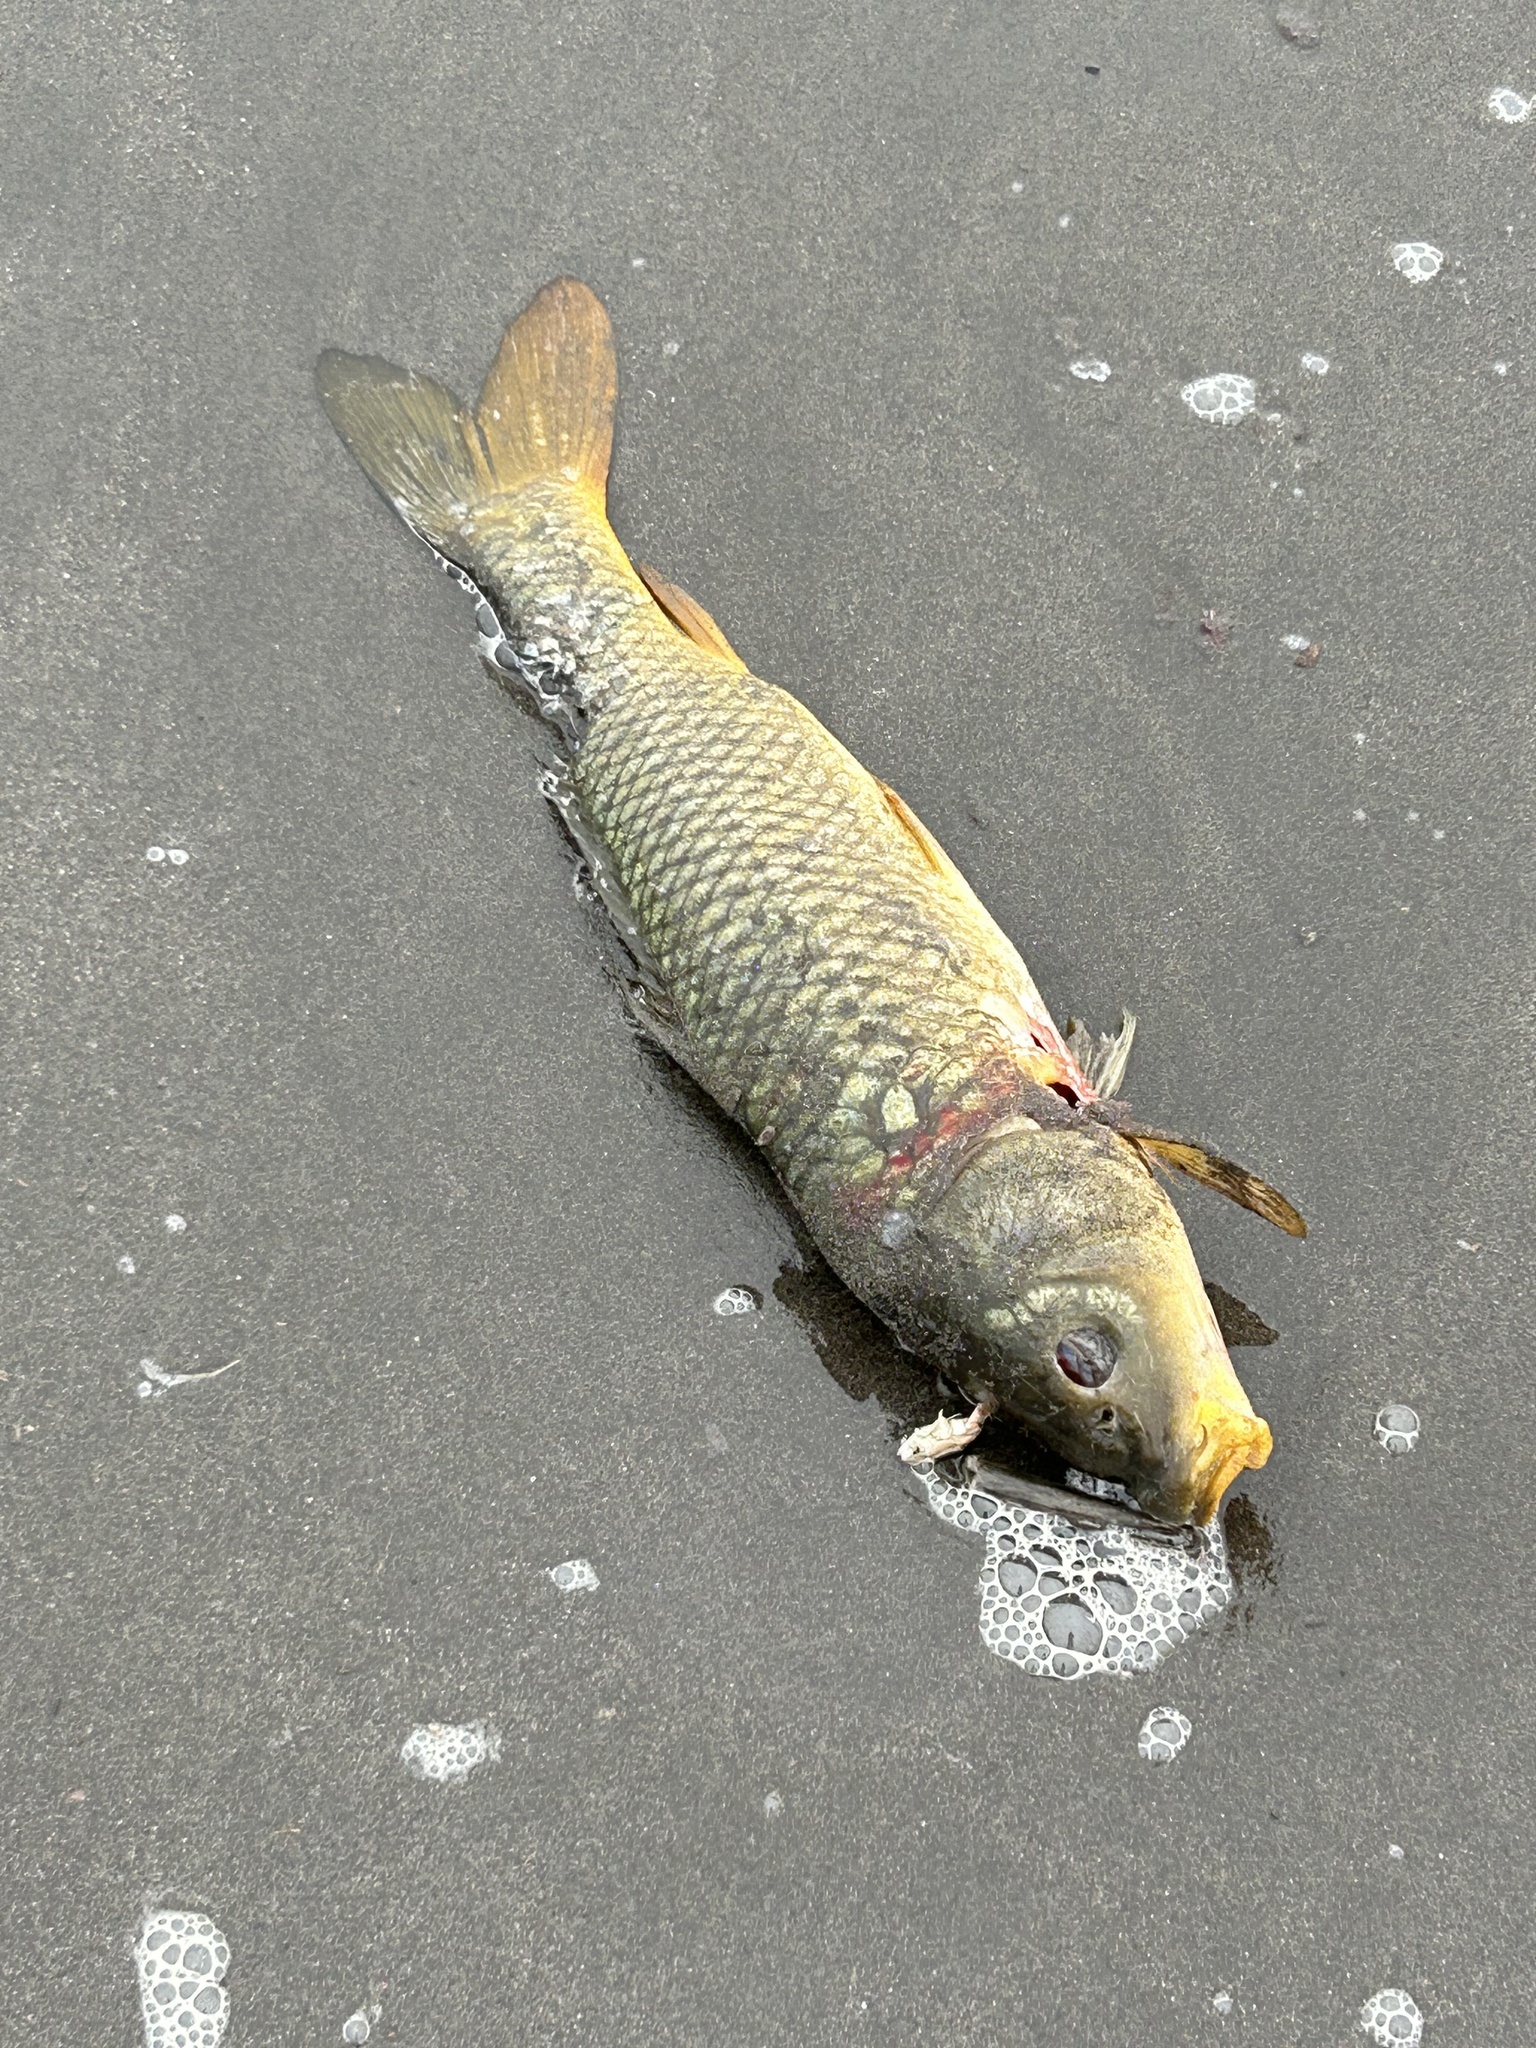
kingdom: Animalia
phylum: Chordata
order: Cypriniformes
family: Cyprinidae
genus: Cyprinus
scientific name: Cyprinus carpio
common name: Common carp
